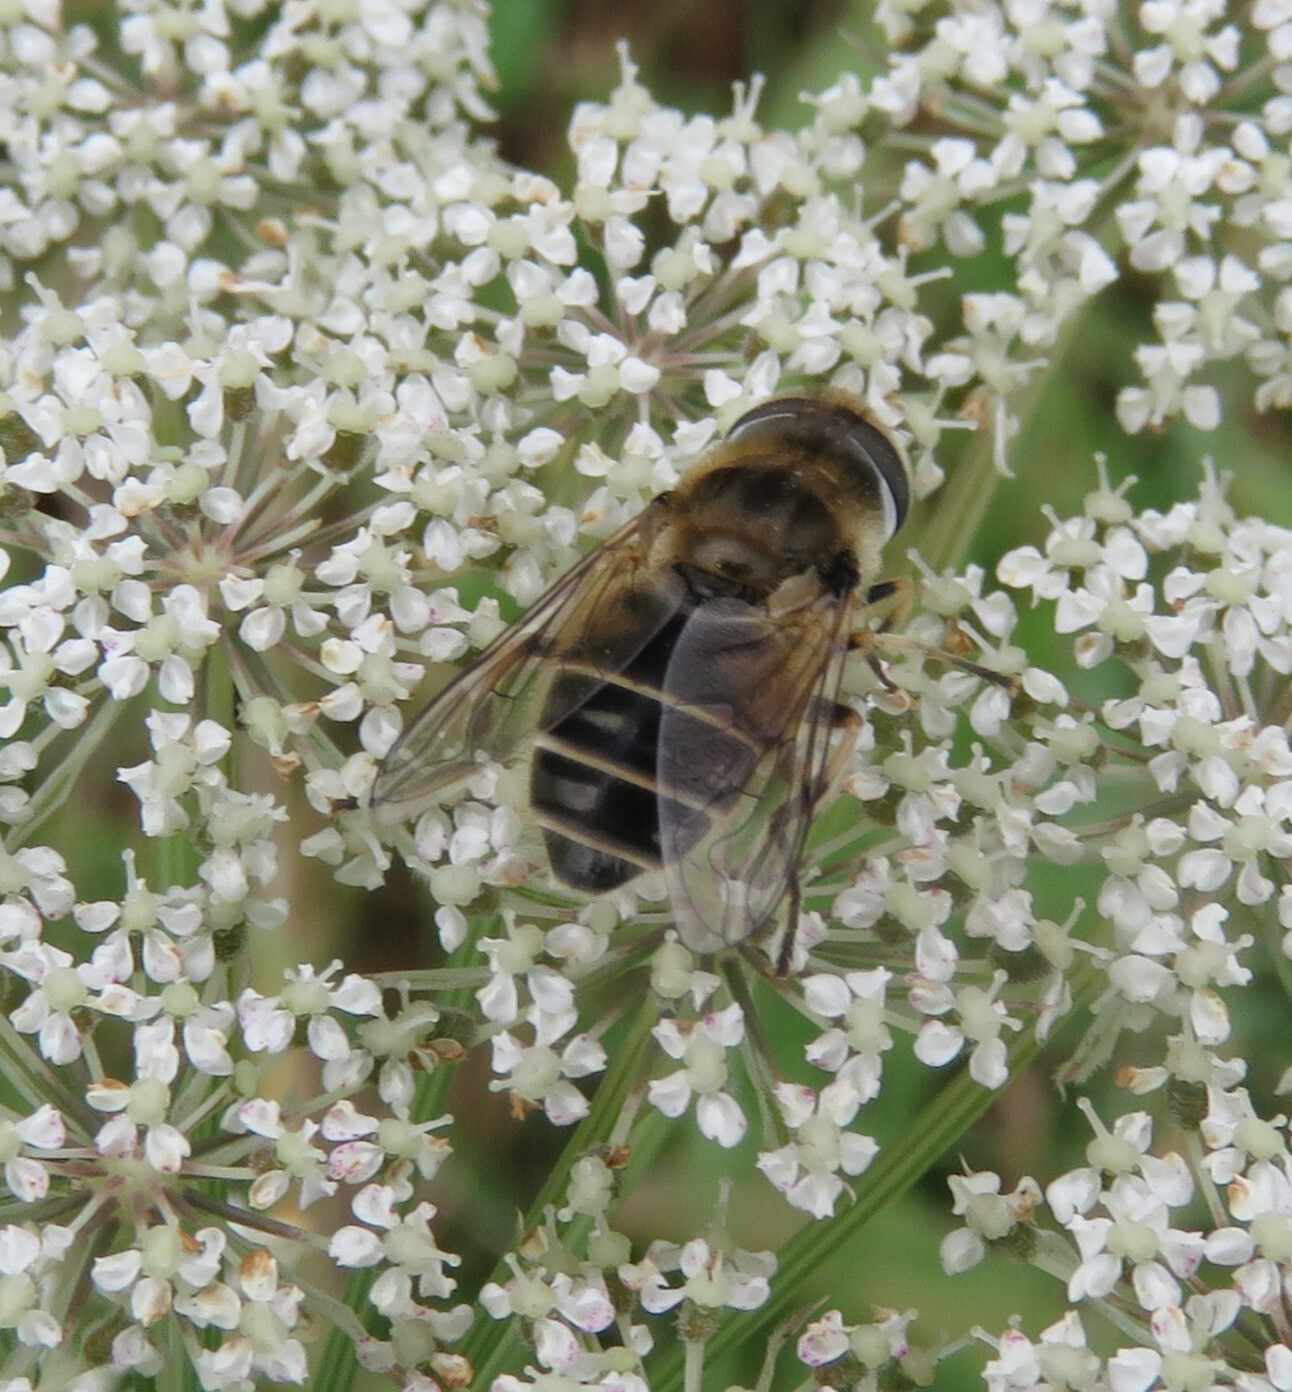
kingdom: Animalia
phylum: Arthropoda
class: Insecta
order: Diptera
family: Syrphidae
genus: Eristalis
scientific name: Eristalis arbustorum
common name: Hover fly
